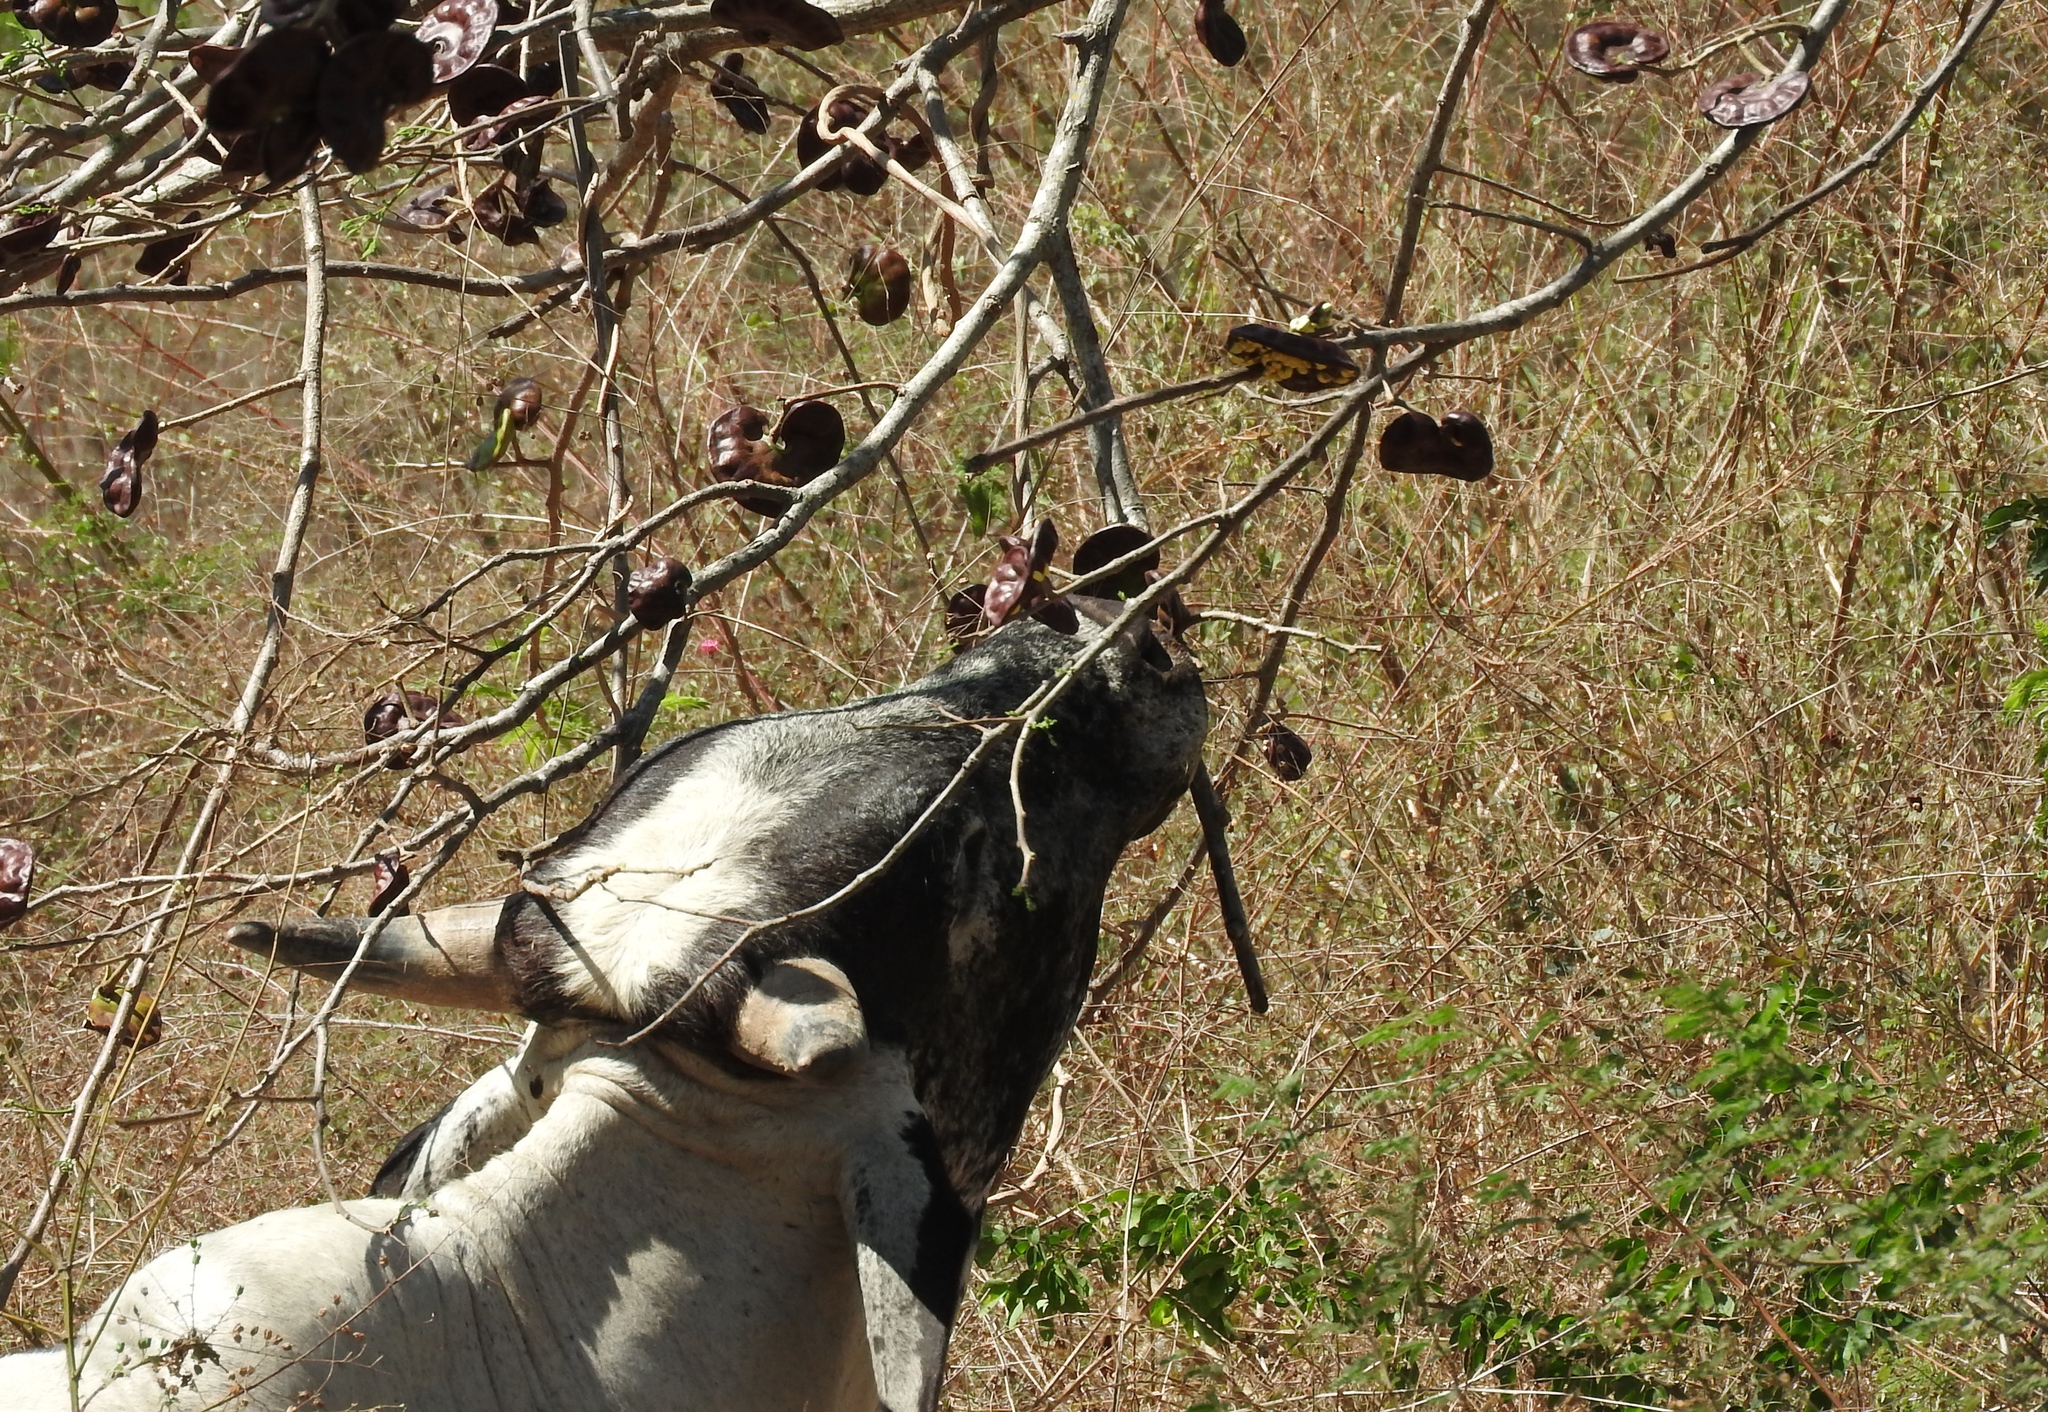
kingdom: Plantae
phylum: Tracheophyta
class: Magnoliopsida
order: Fabales
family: Fabaceae
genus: Enterolobium
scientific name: Enterolobium cyclocarpum
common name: Ear tree
